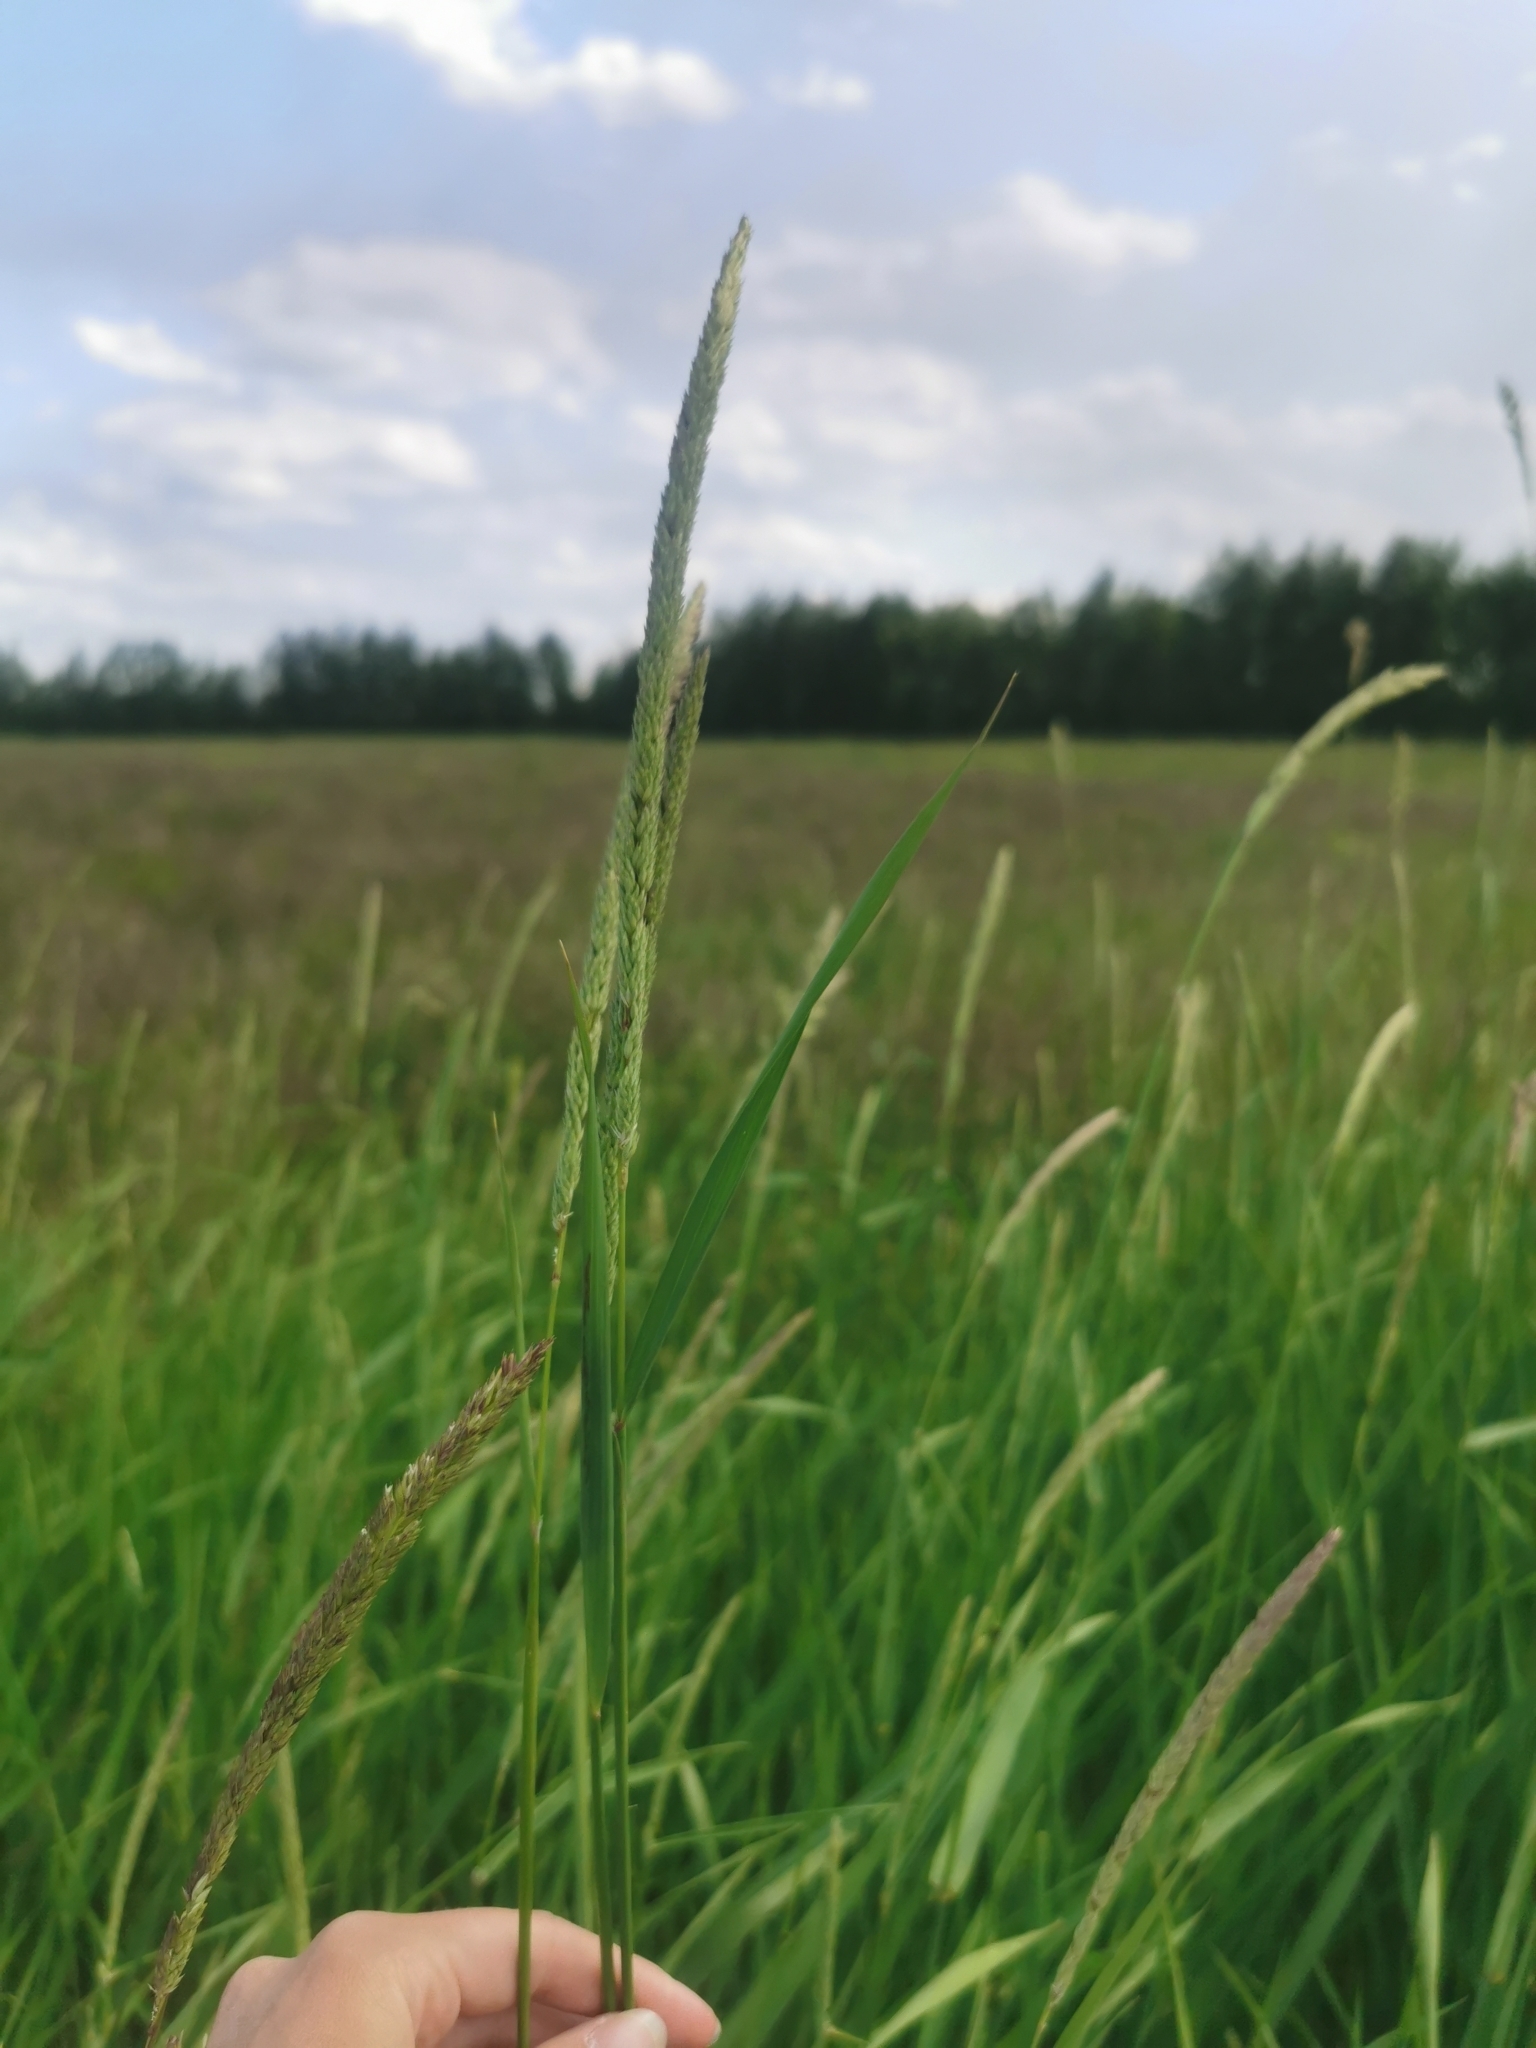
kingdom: Plantae
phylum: Tracheophyta
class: Liliopsida
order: Poales
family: Poaceae
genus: Phalaris
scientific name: Phalaris arundinacea
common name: Reed canary-grass
